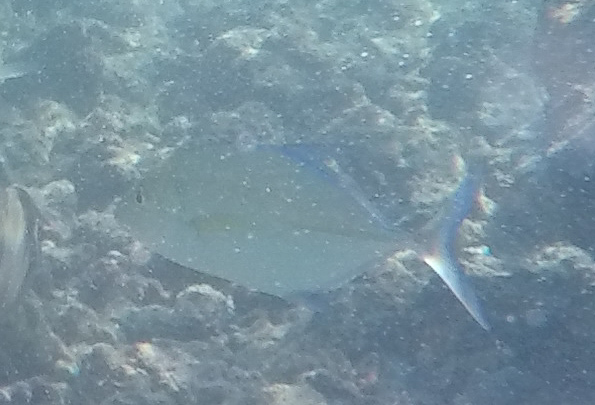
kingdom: Animalia
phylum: Chordata
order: Perciformes
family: Carangidae
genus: Caranx
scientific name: Caranx melampygus
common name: Bluefin trevally
